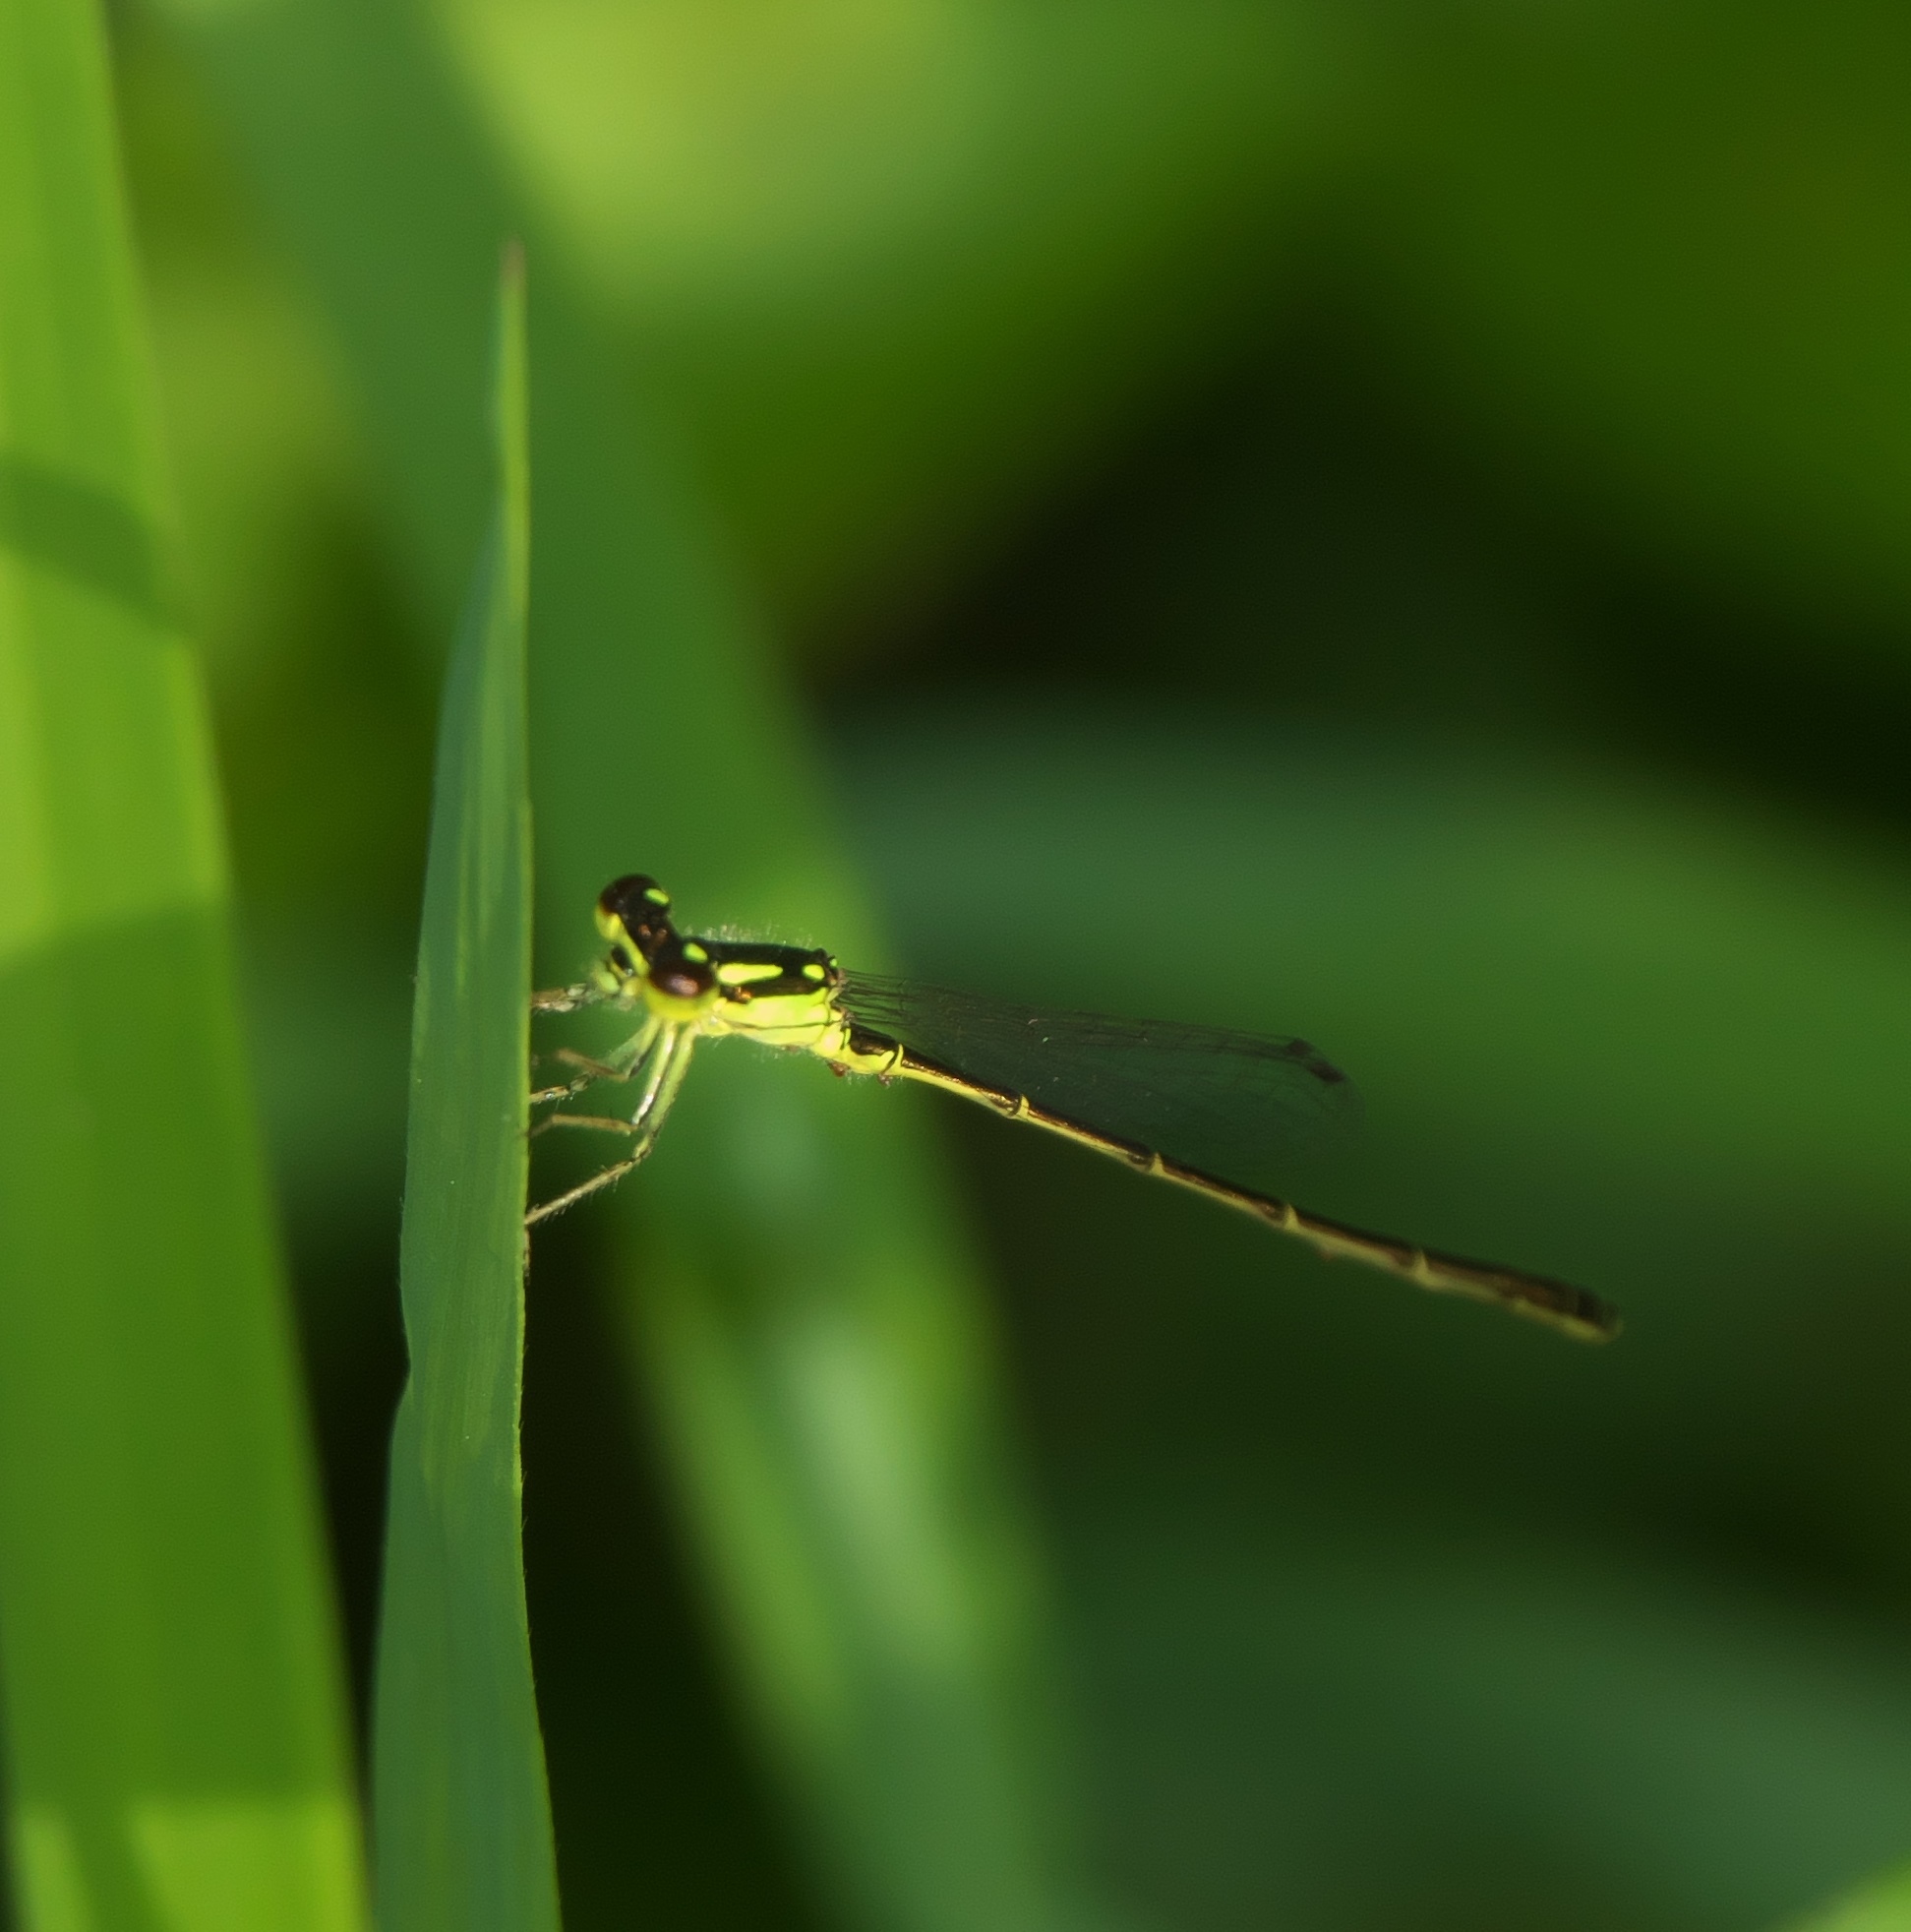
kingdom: Animalia
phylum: Arthropoda
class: Insecta
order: Odonata
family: Coenagrionidae
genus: Ischnura
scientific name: Ischnura posita
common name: Fragile forktail
